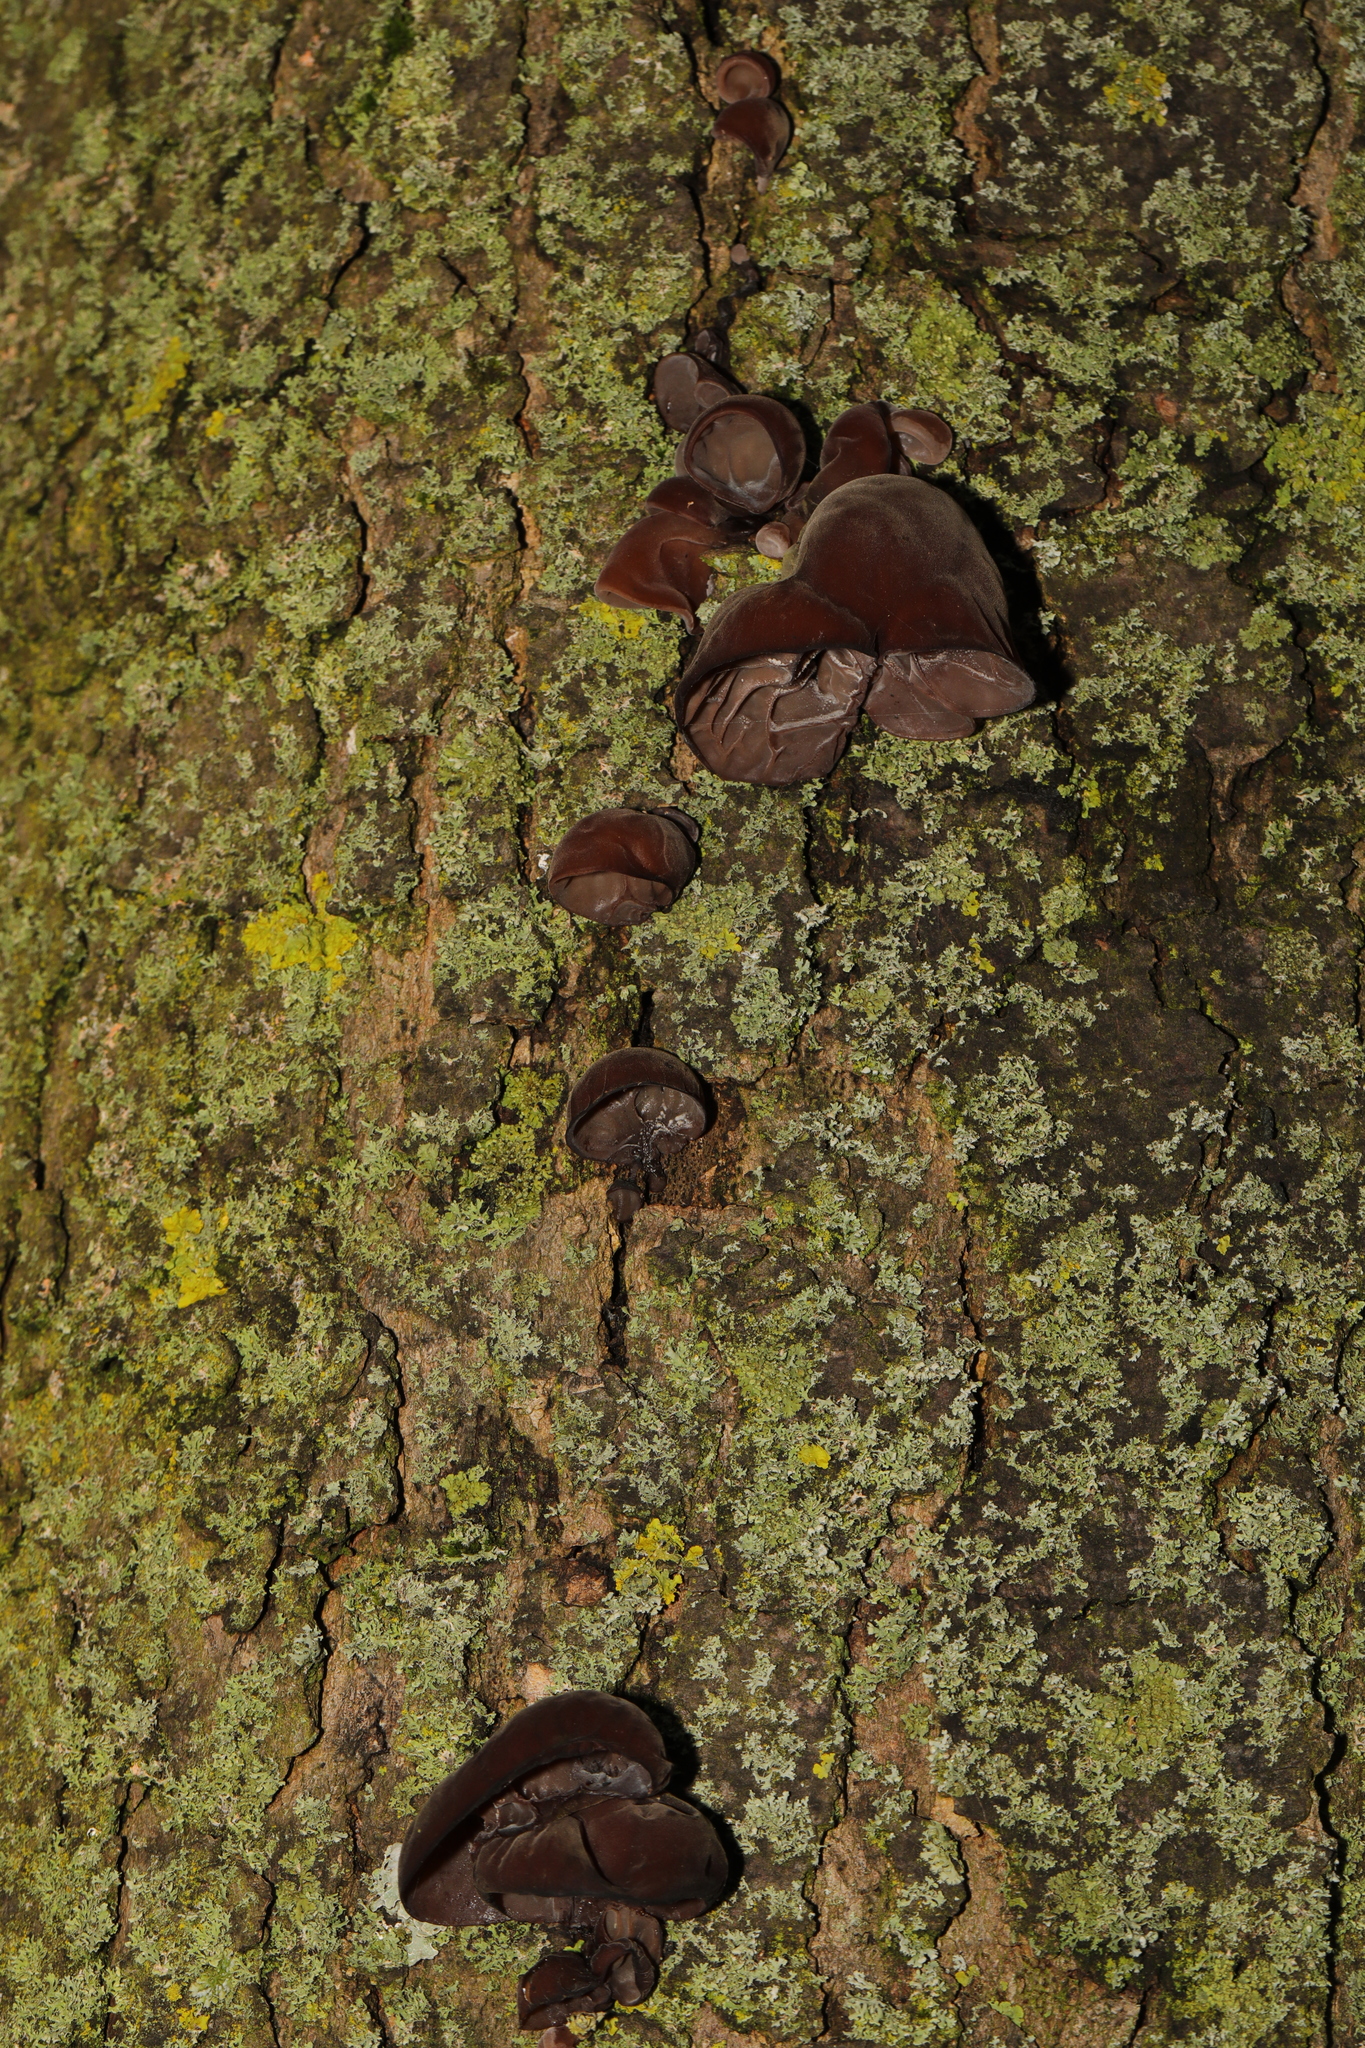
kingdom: Fungi
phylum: Basidiomycota
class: Agaricomycetes
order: Auriculariales
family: Auriculariaceae
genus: Auricularia
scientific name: Auricularia auricula-judae
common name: Jelly ear
